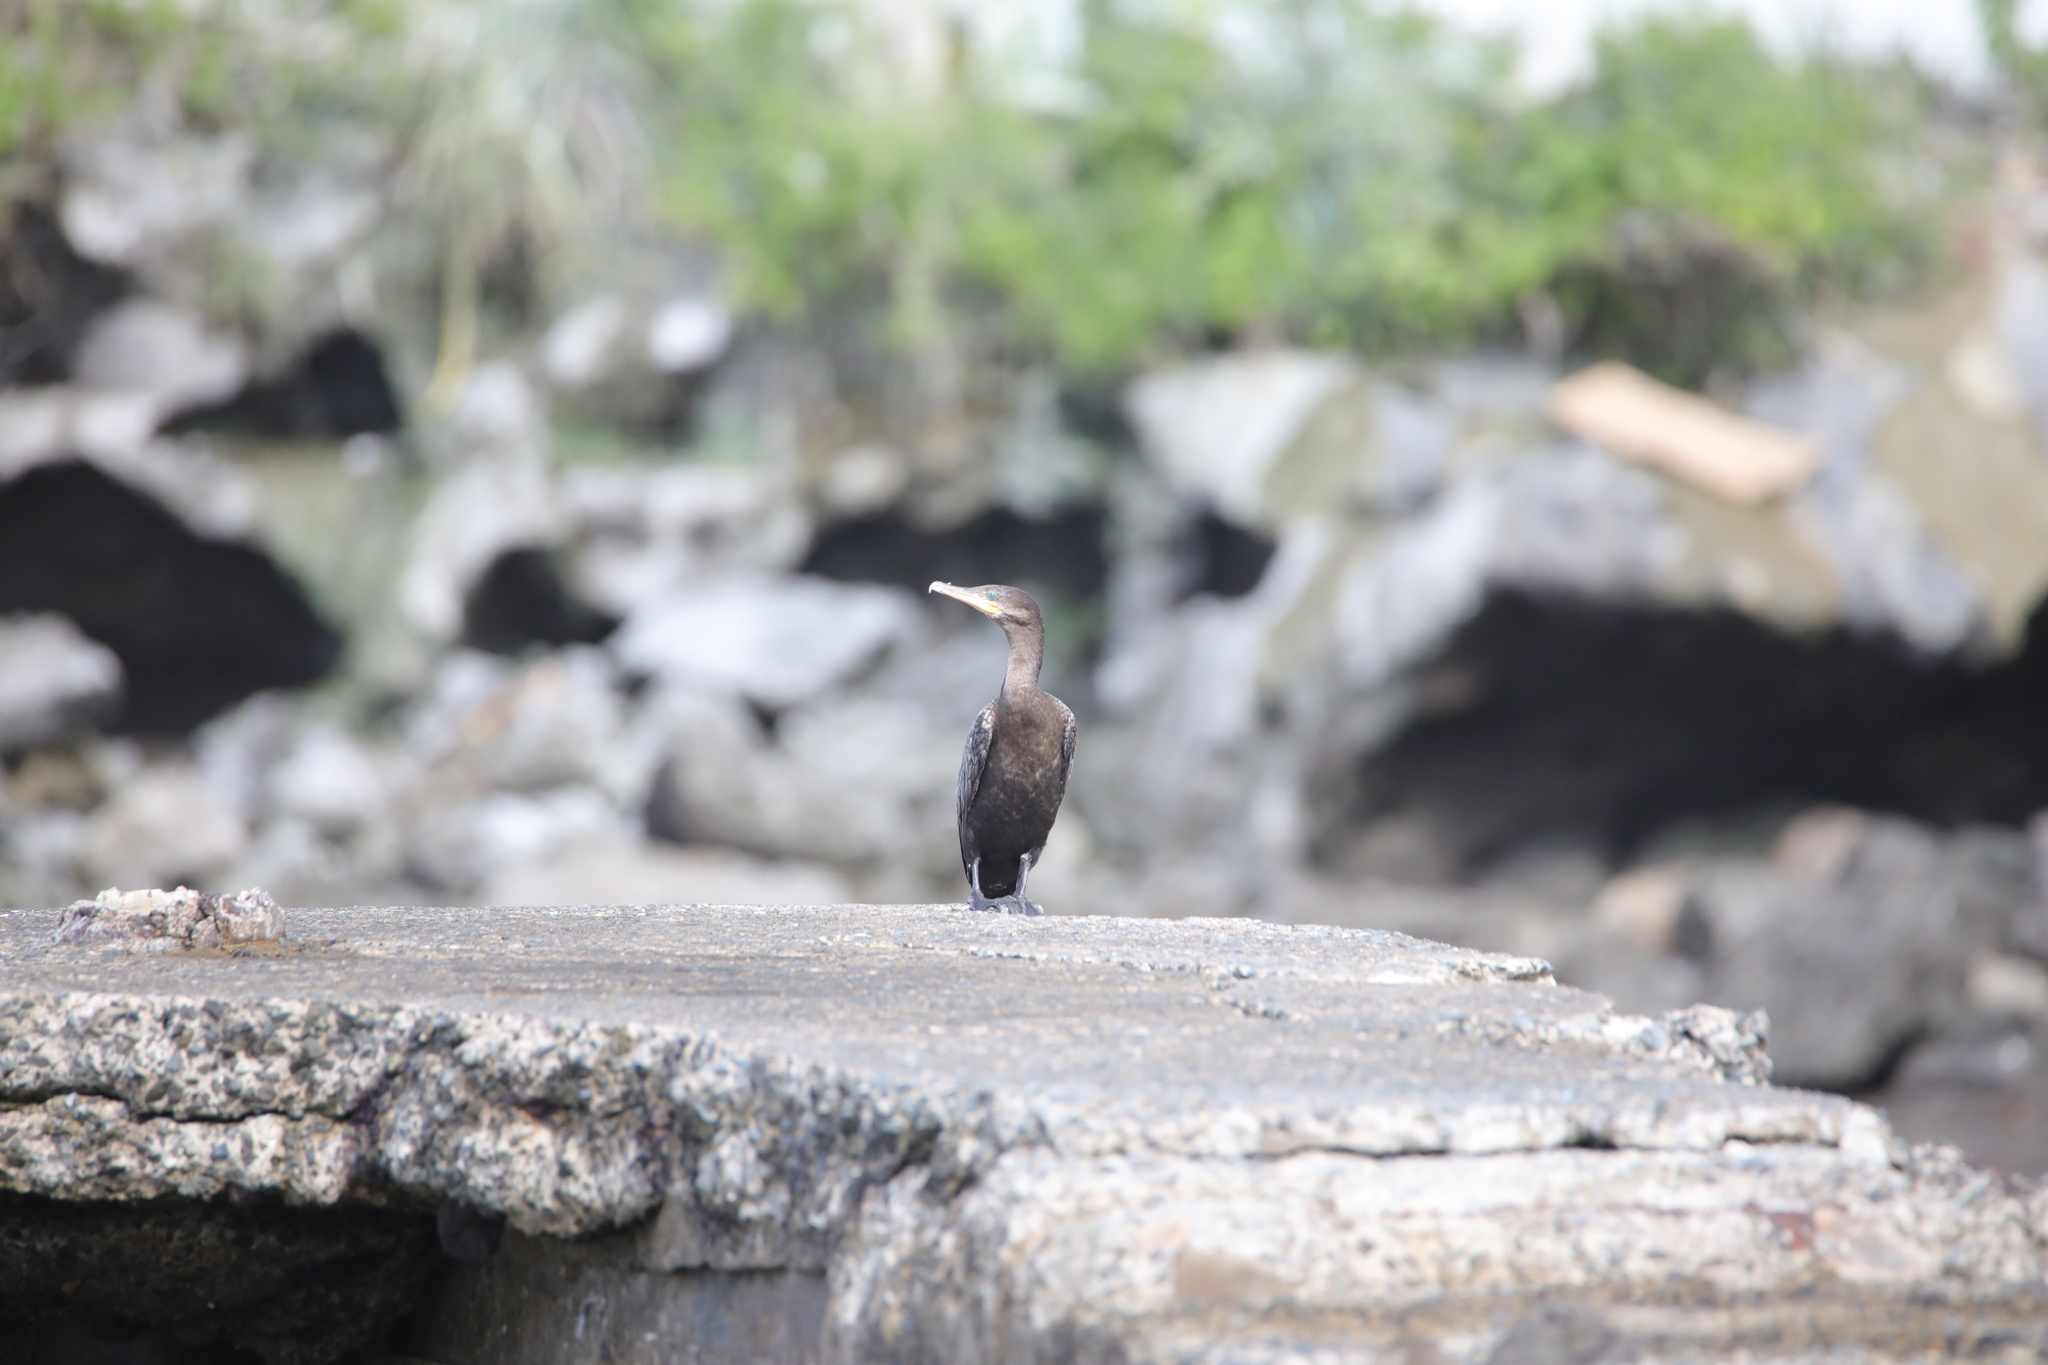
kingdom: Animalia
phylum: Chordata
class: Aves
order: Suliformes
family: Phalacrocoracidae
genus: Phalacrocorax
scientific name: Phalacrocorax brasilianus
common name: Neotropic cormorant
